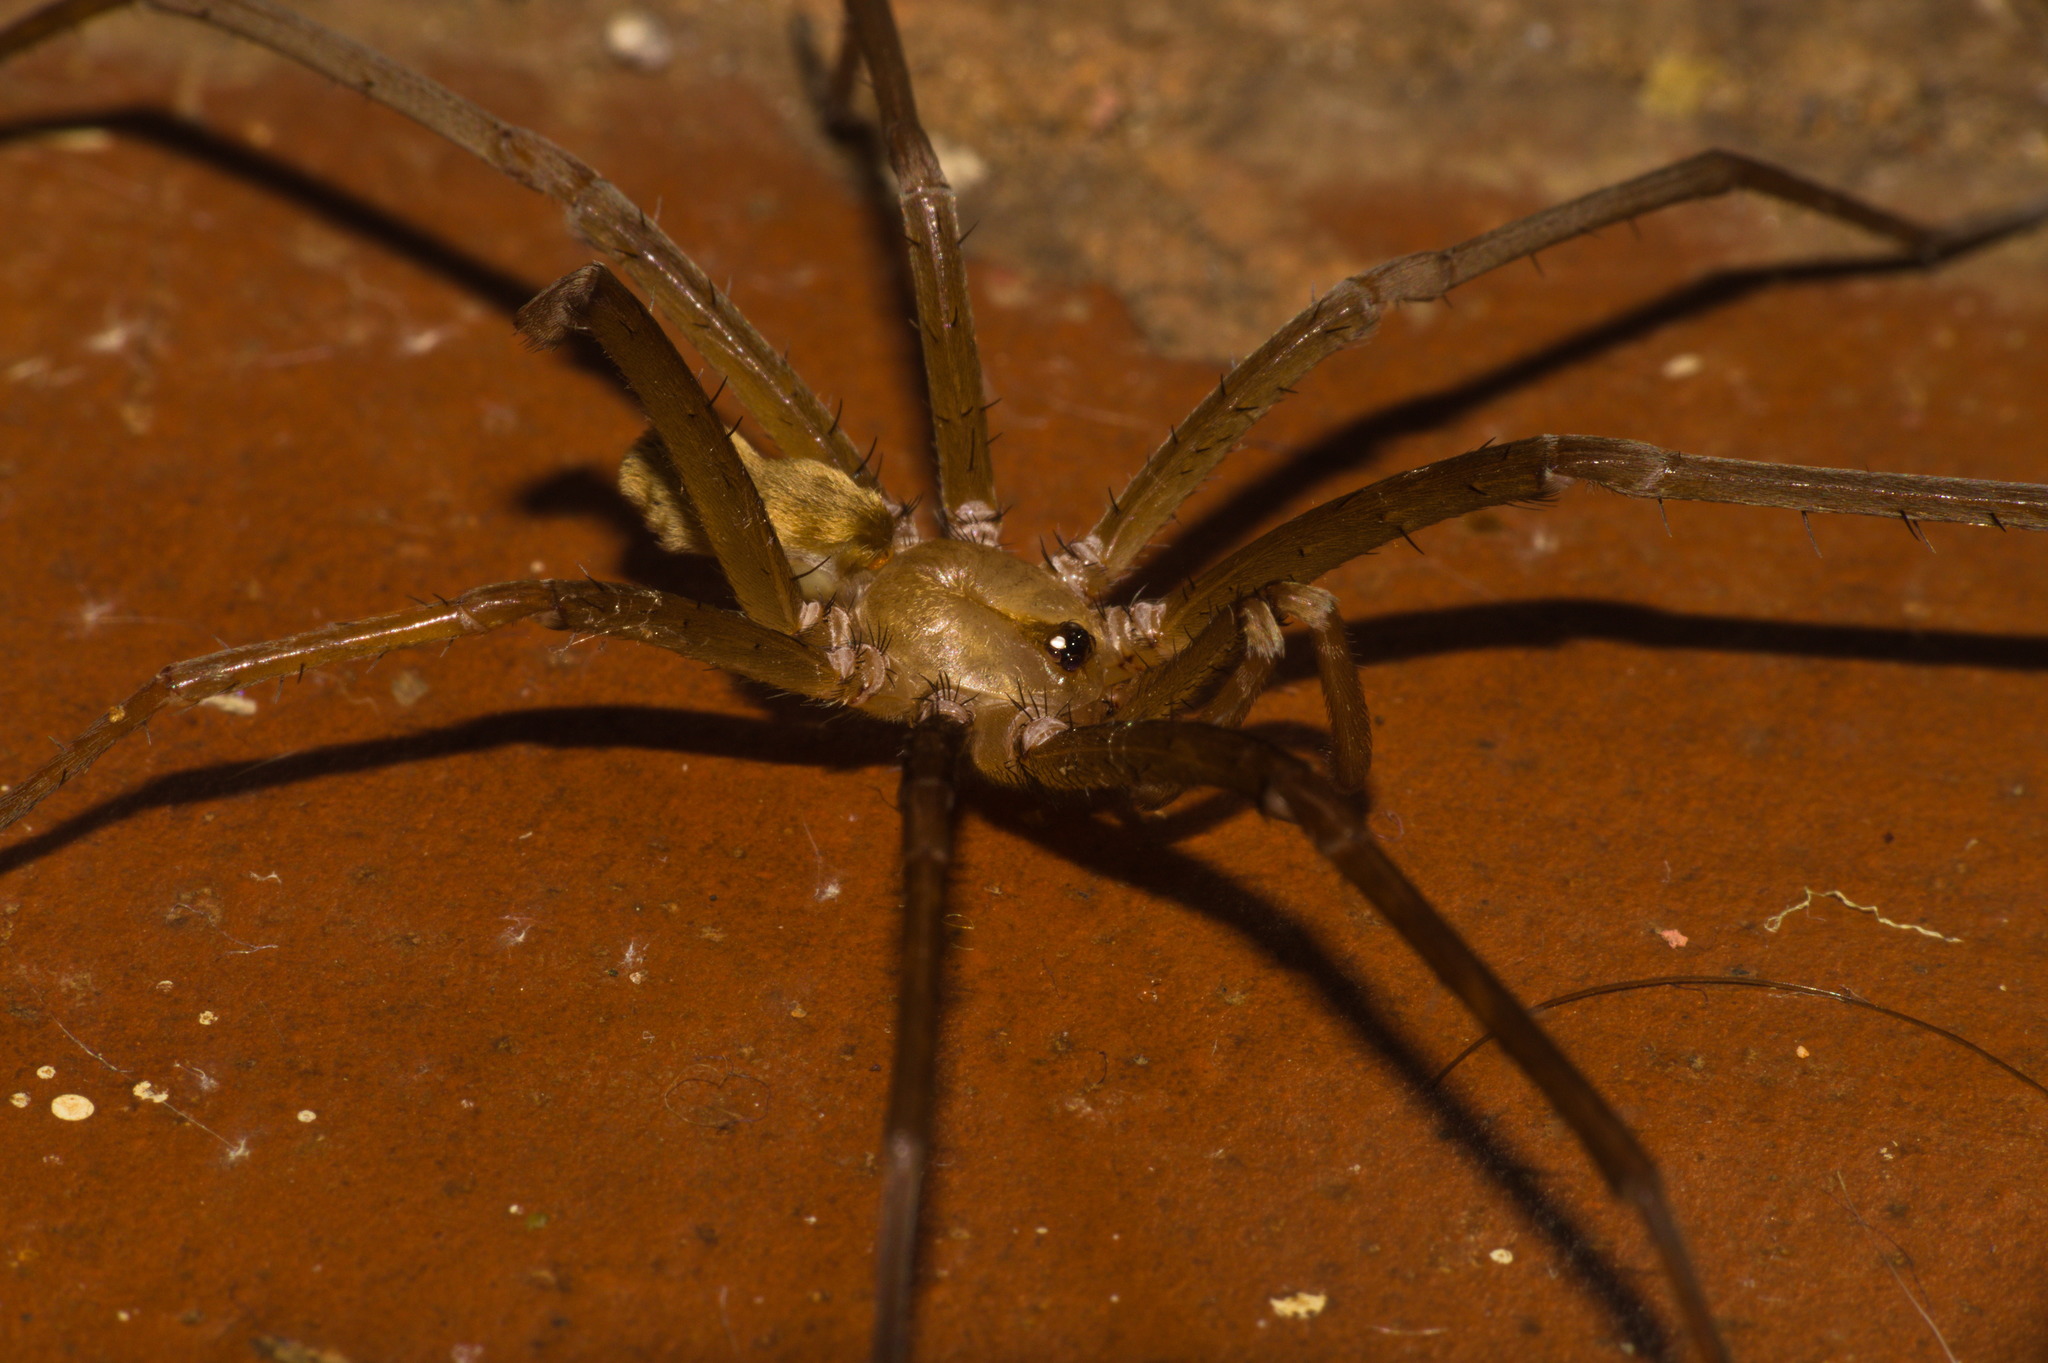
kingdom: Animalia
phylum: Arthropoda
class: Arachnida
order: Araneae
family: Filistatidae
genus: Kukulcania
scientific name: Kukulcania hibernalis
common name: Crevice weaver
